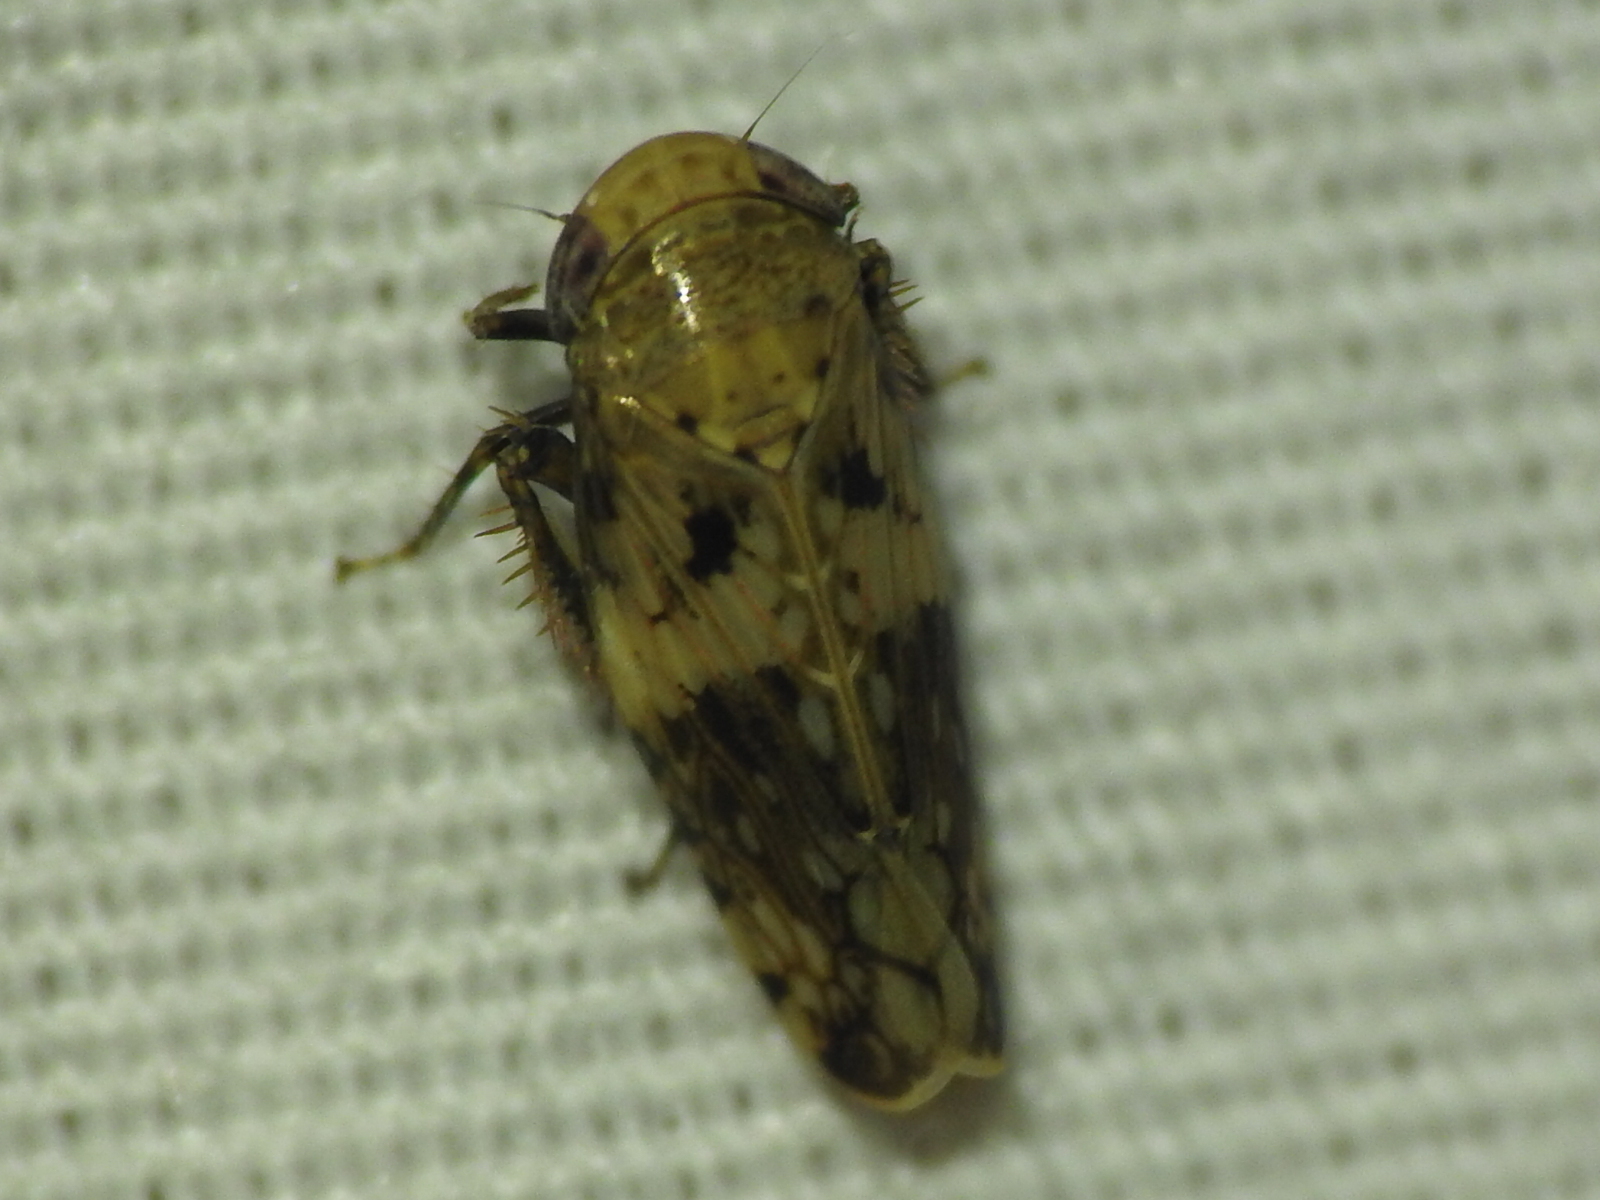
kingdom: Animalia
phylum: Arthropoda
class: Insecta
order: Hemiptera
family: Cicadellidae
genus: Menosoma
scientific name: Menosoma cinctum
